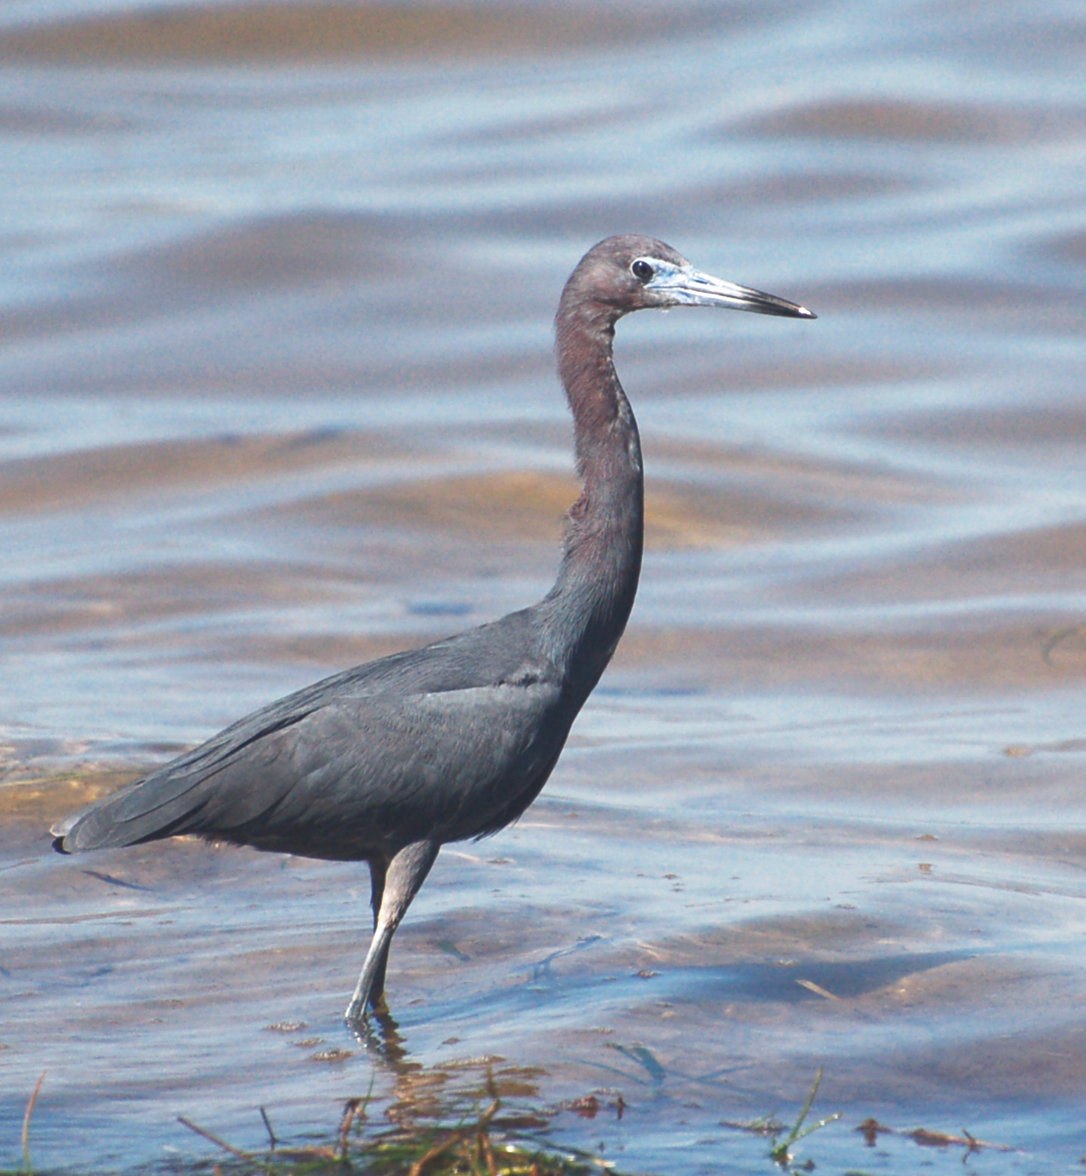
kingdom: Animalia
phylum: Chordata
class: Aves
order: Pelecaniformes
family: Ardeidae
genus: Egretta
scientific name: Egretta caerulea
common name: Little blue heron
